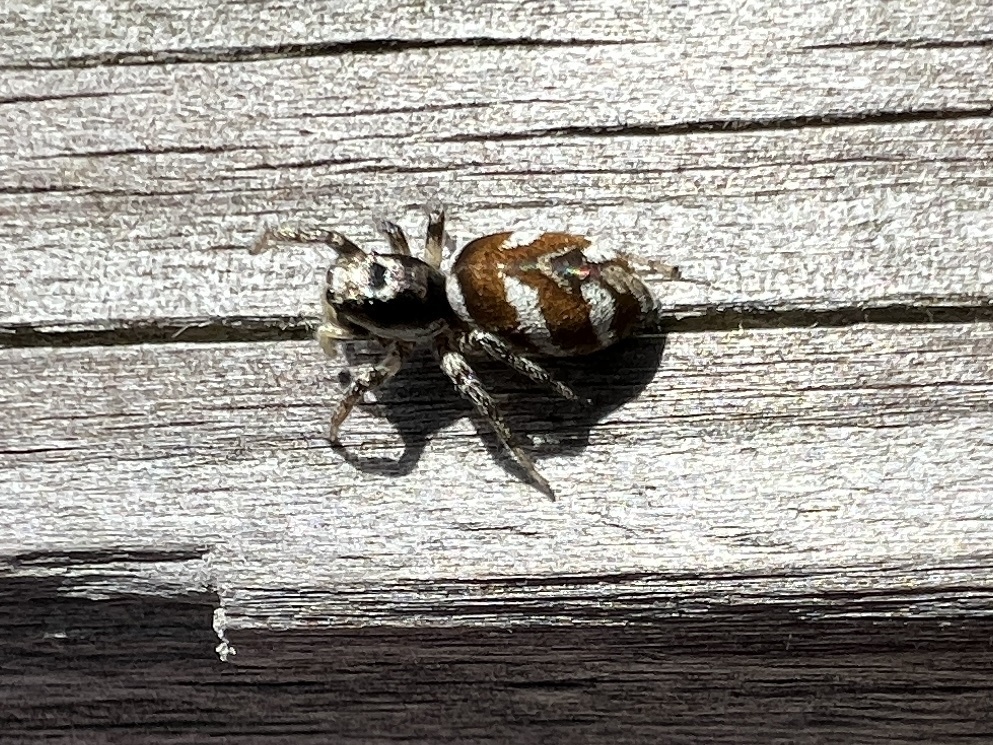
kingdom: Animalia
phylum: Arthropoda
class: Arachnida
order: Araneae
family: Salticidae
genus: Salticus
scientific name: Salticus scenicus
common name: Zebra jumper
